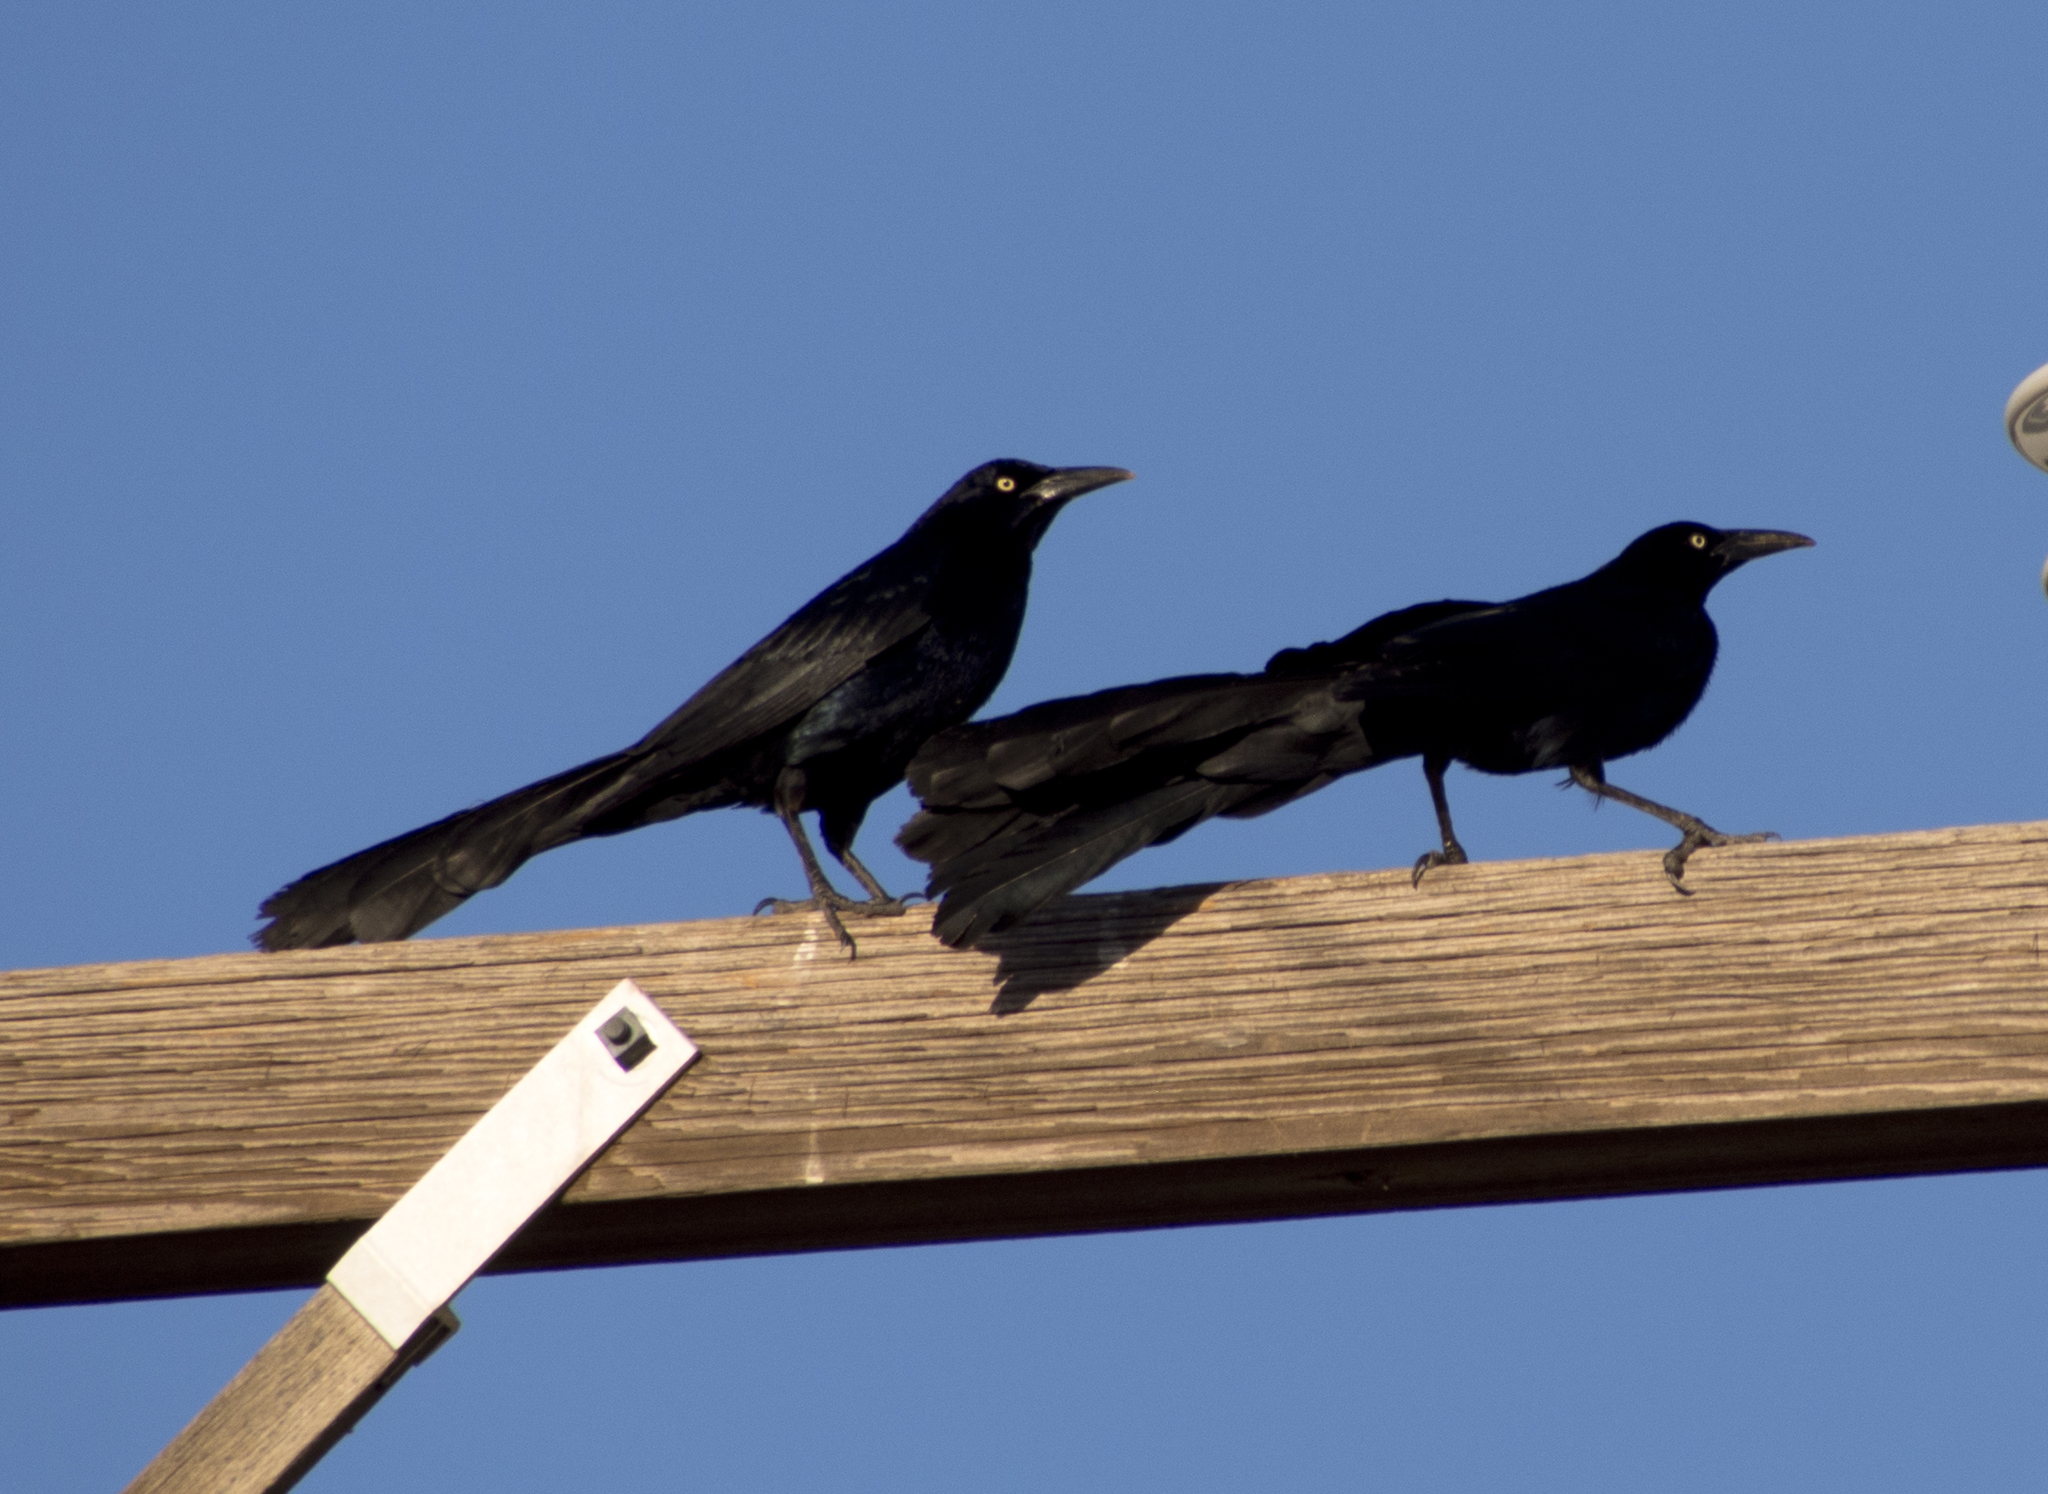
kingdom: Animalia
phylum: Chordata
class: Aves
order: Passeriformes
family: Icteridae
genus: Quiscalus
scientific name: Quiscalus mexicanus
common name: Great-tailed grackle
